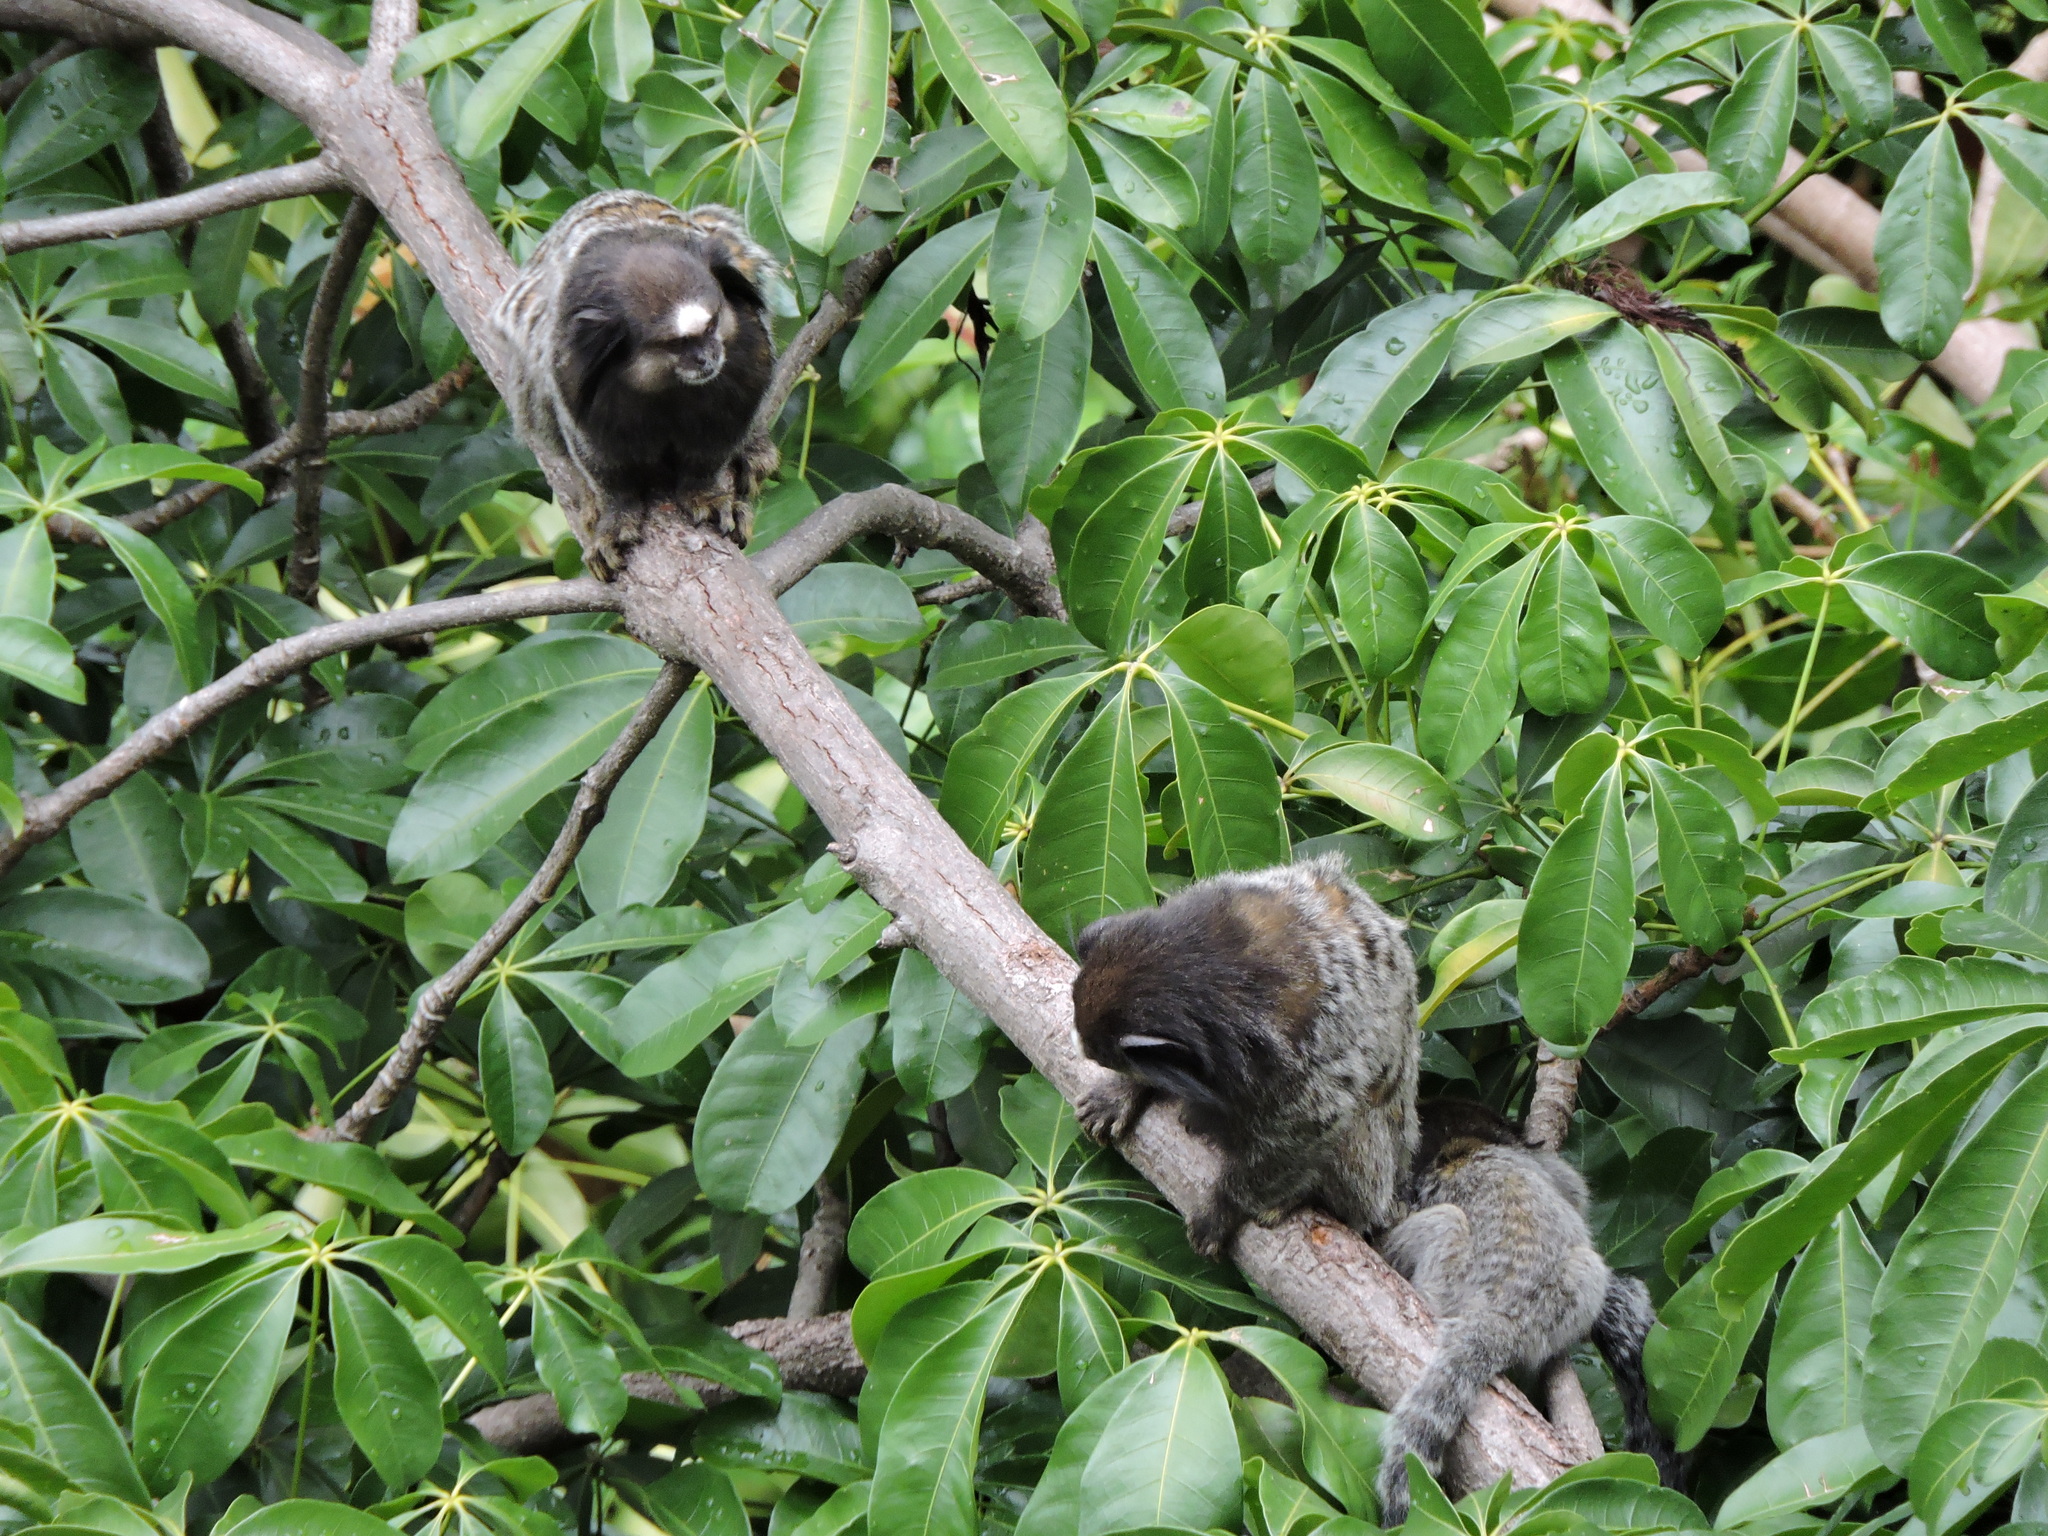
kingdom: Animalia
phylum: Chordata
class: Mammalia
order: Primates
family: Callitrichidae
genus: Callithrix
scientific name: Callithrix penicillata
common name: Black-tufted marmoset
